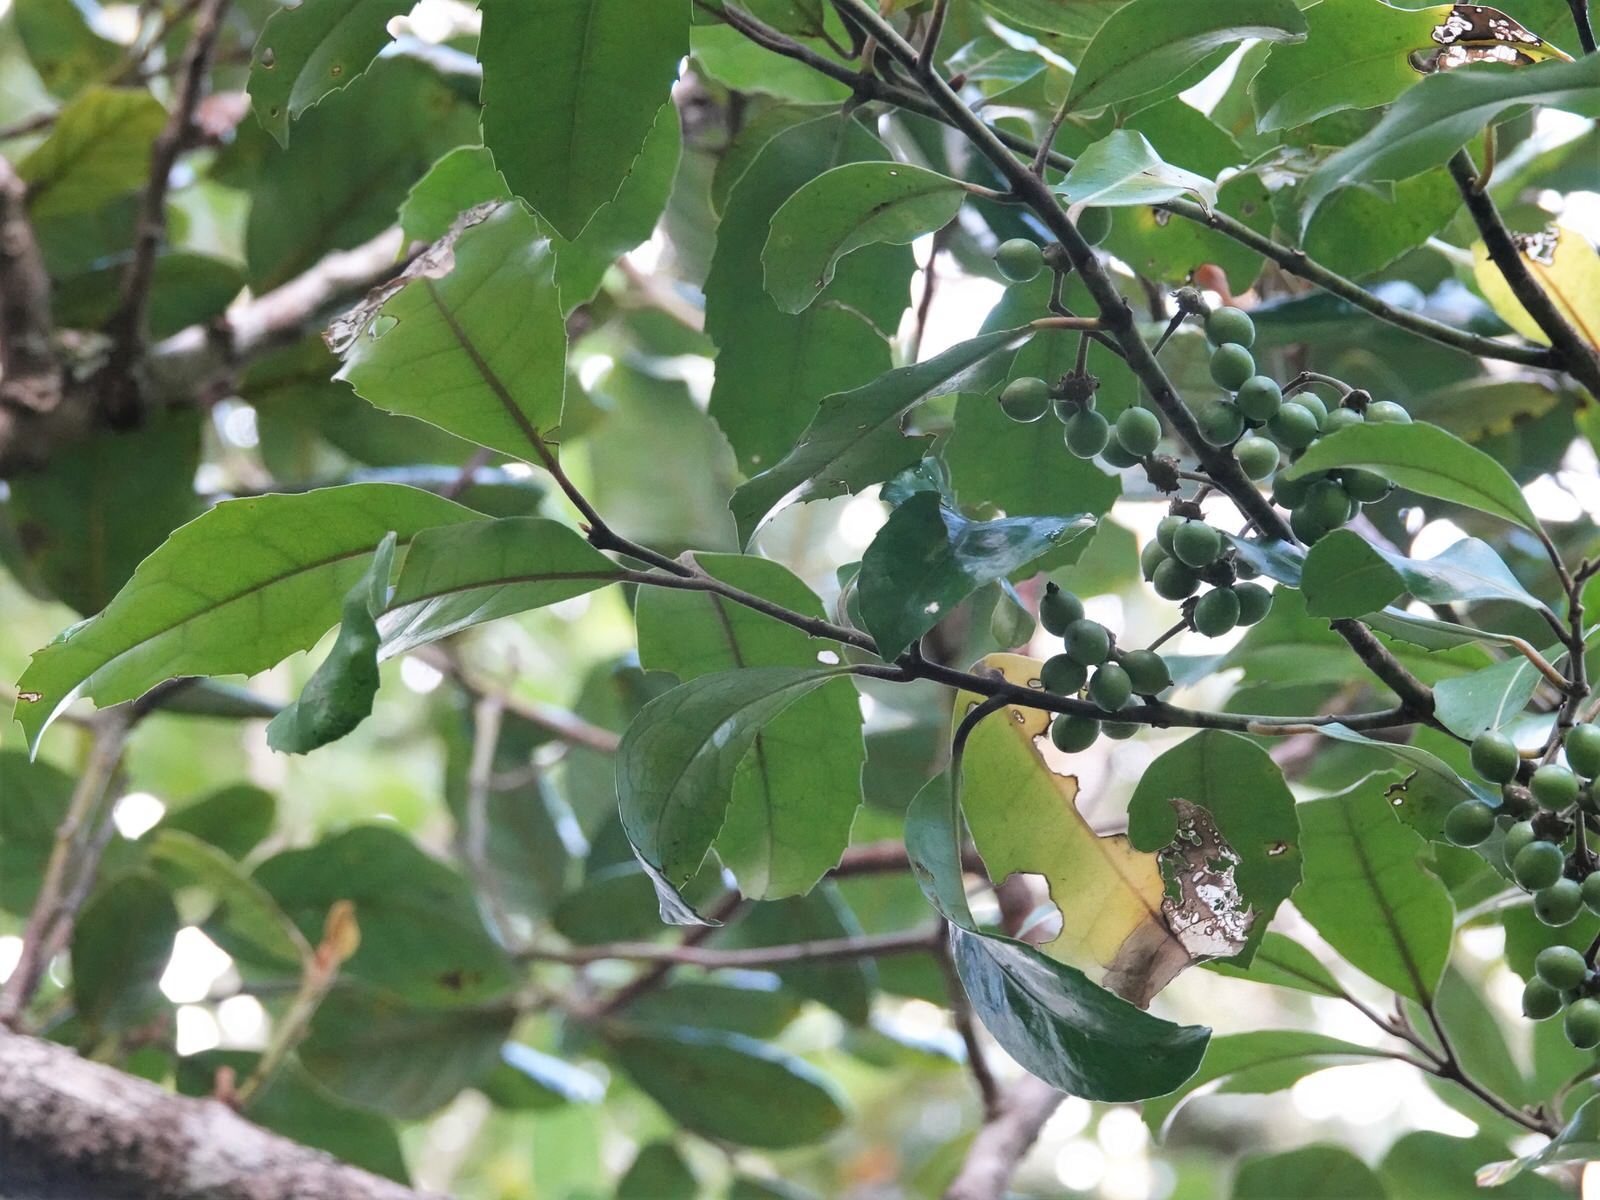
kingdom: Plantae
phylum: Tracheophyta
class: Magnoliopsida
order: Laurales
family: Monimiaceae
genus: Hedycarya
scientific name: Hedycarya arborea
